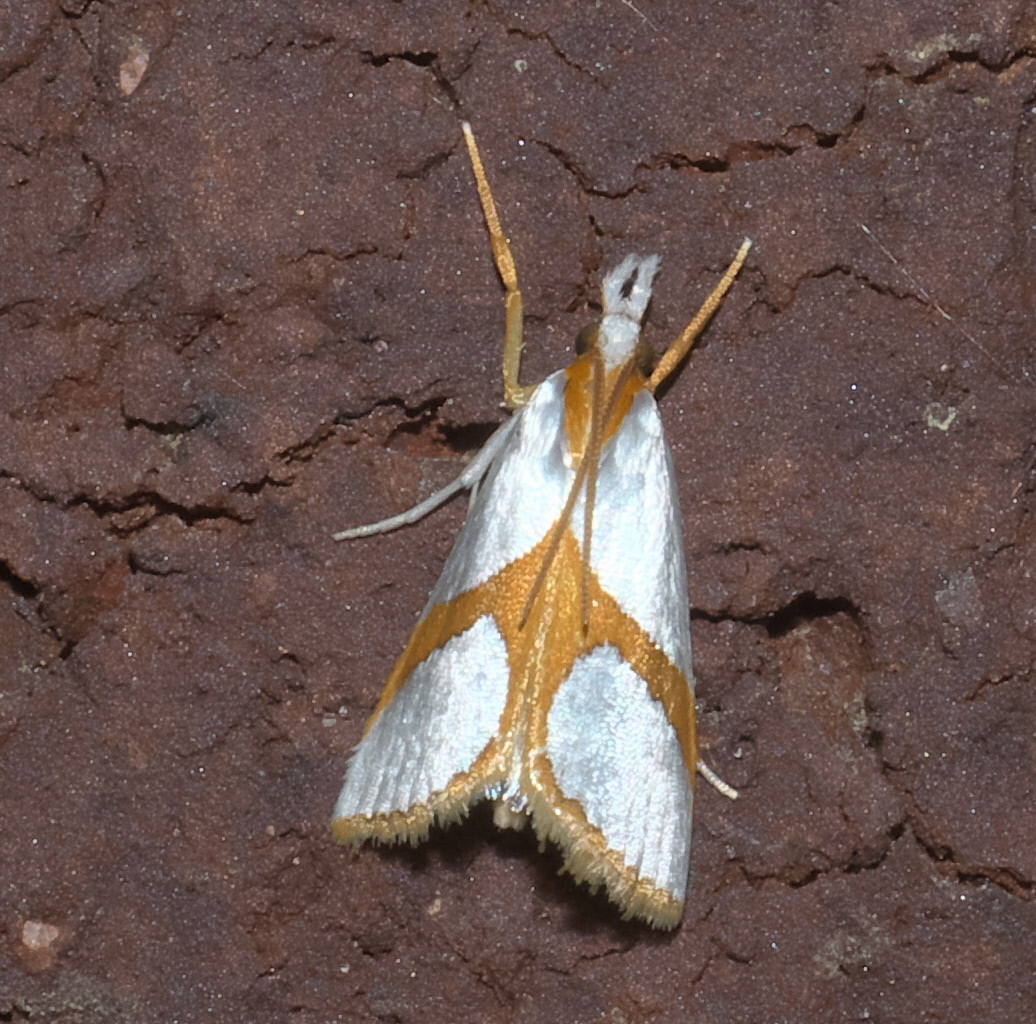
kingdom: Animalia
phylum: Arthropoda
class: Insecta
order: Lepidoptera
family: Crambidae
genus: Argyria
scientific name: Argyria auratella
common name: Curve-lined argyria moth
